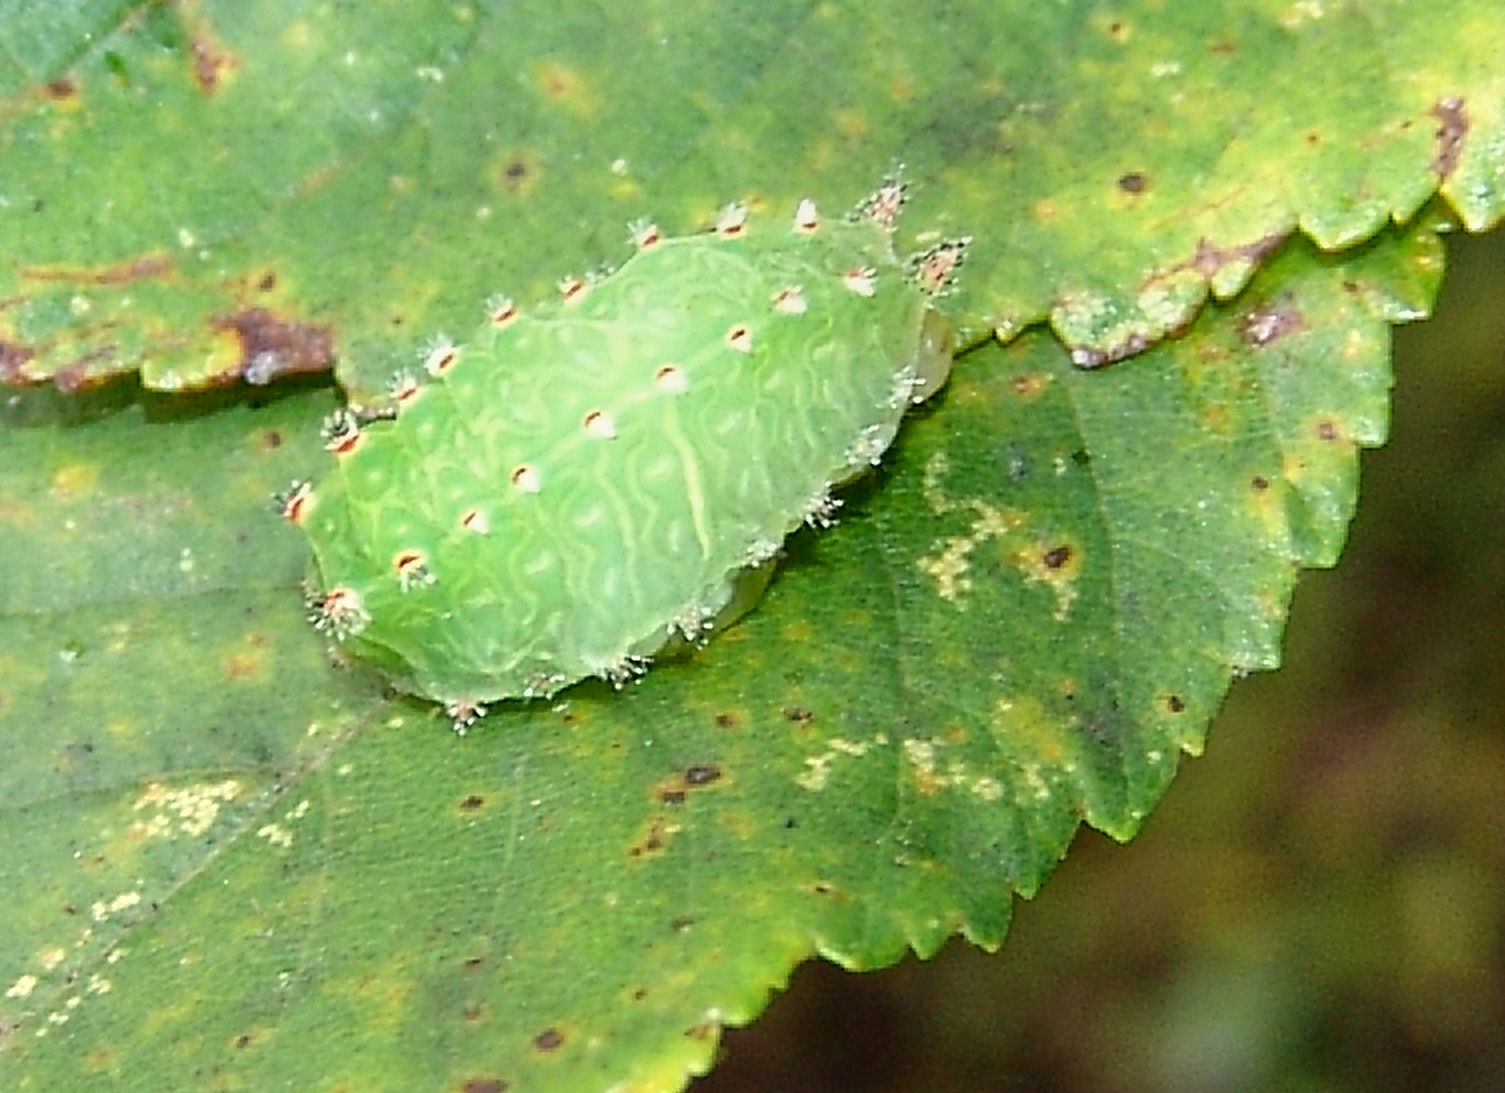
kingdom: Animalia
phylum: Arthropoda
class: Insecta
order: Lepidoptera
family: Limacodidae
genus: Natada
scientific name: Natada nasoni
